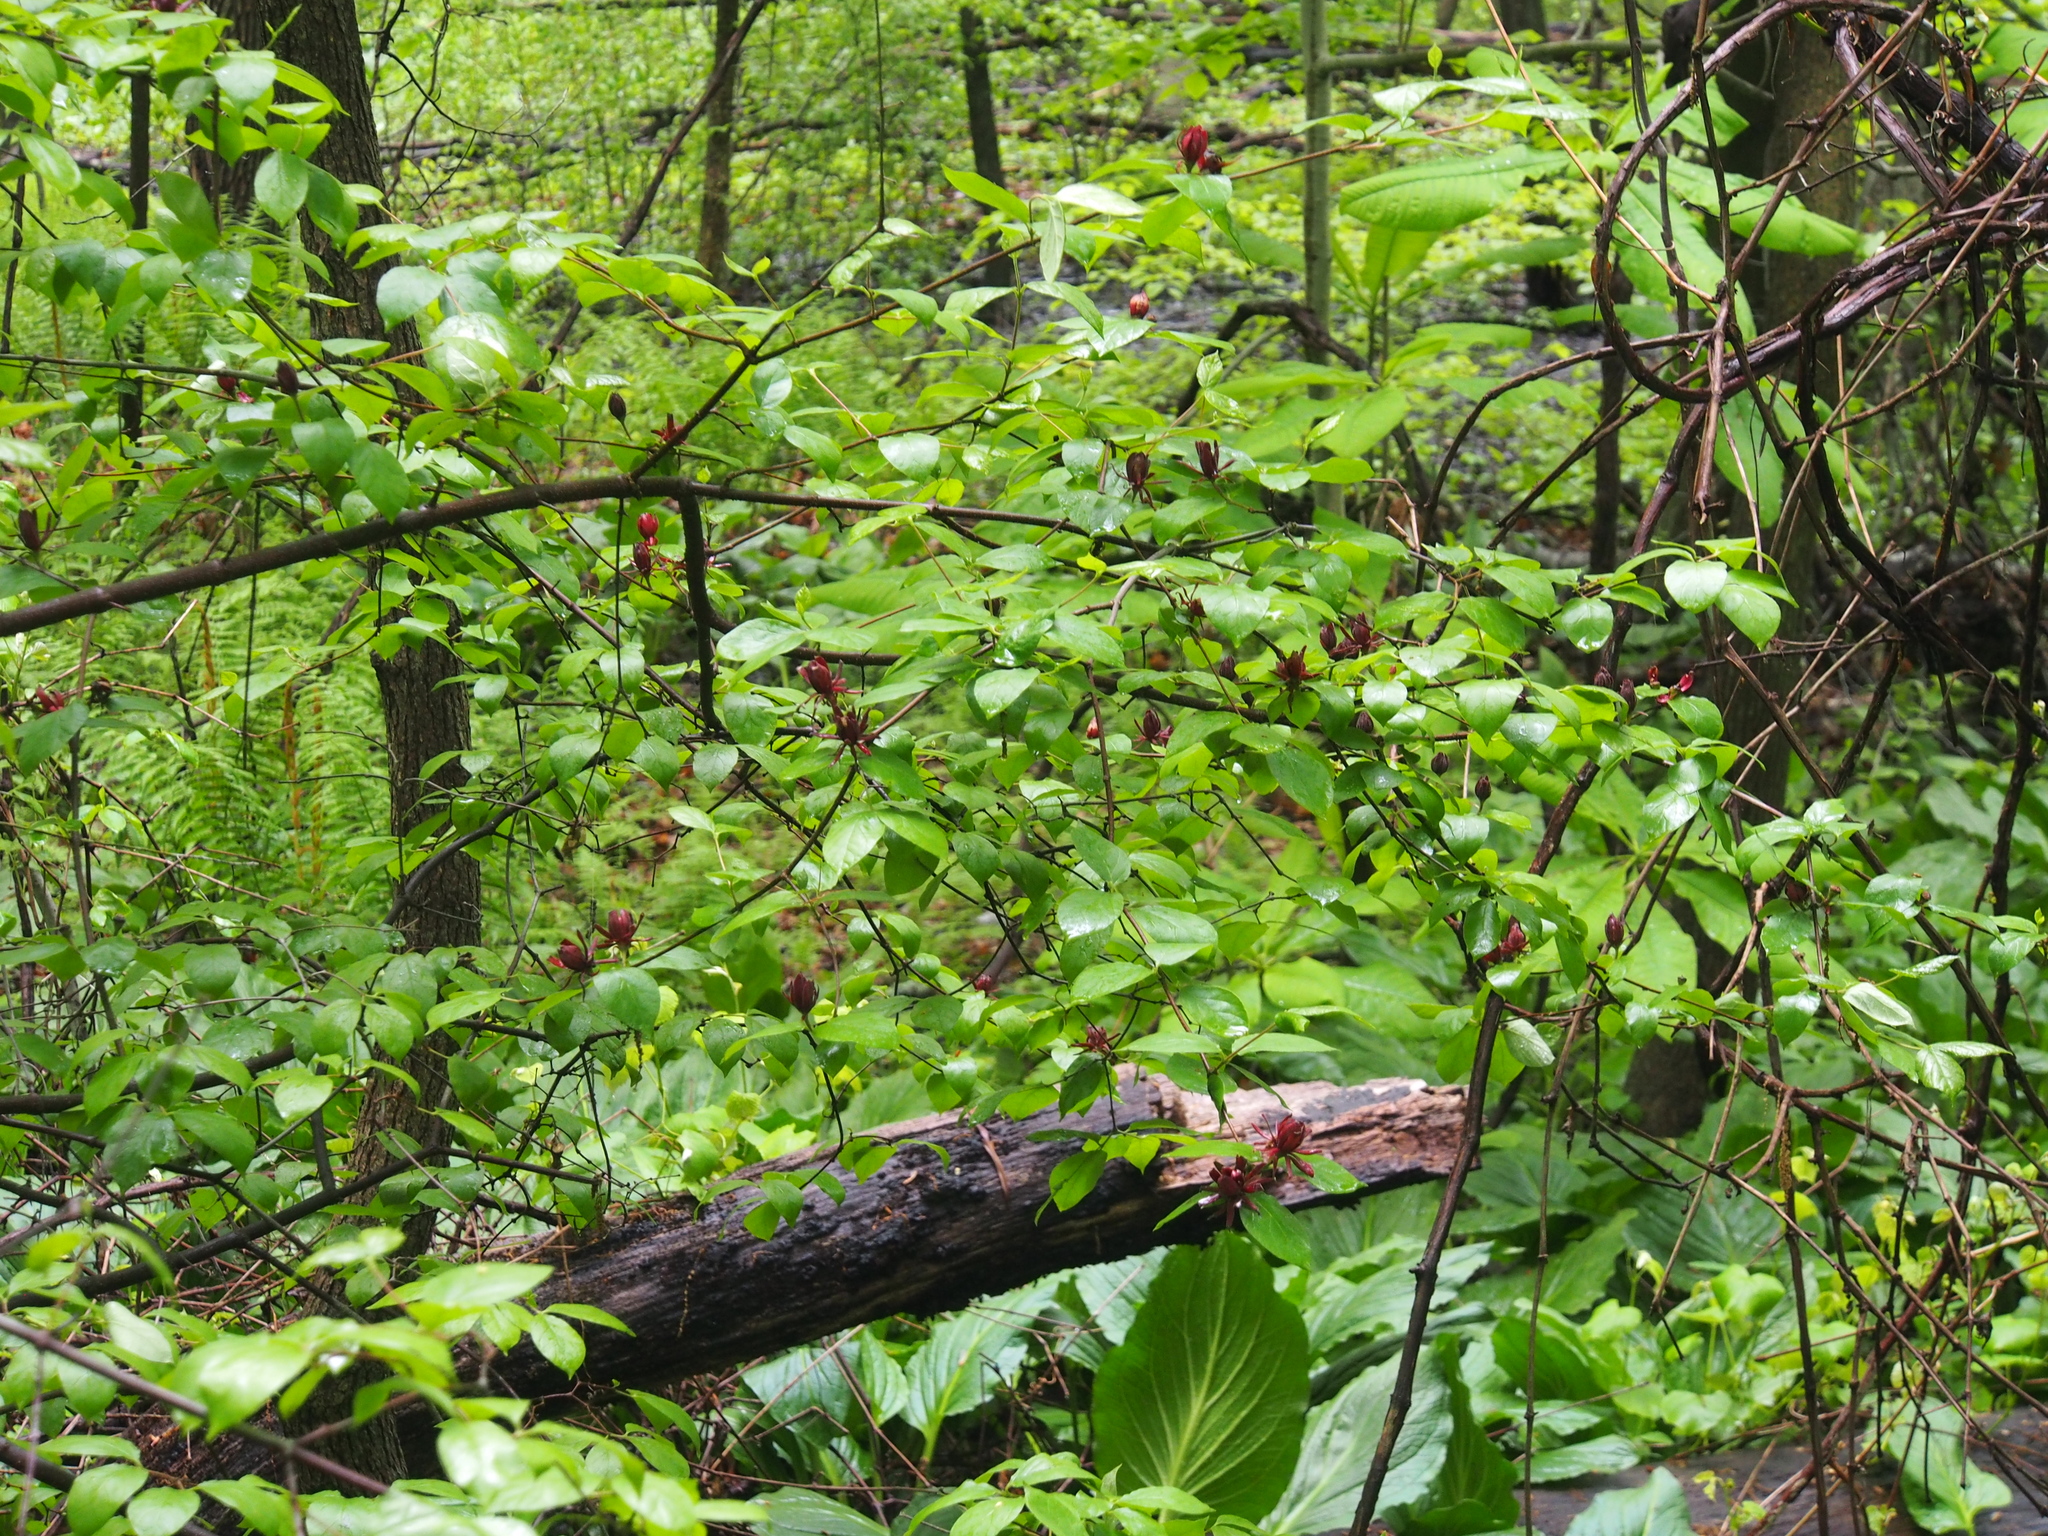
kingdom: Plantae
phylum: Tracheophyta
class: Magnoliopsida
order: Laurales
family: Calycanthaceae
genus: Calycanthus
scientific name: Calycanthus floridus
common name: Carolina-allspice
